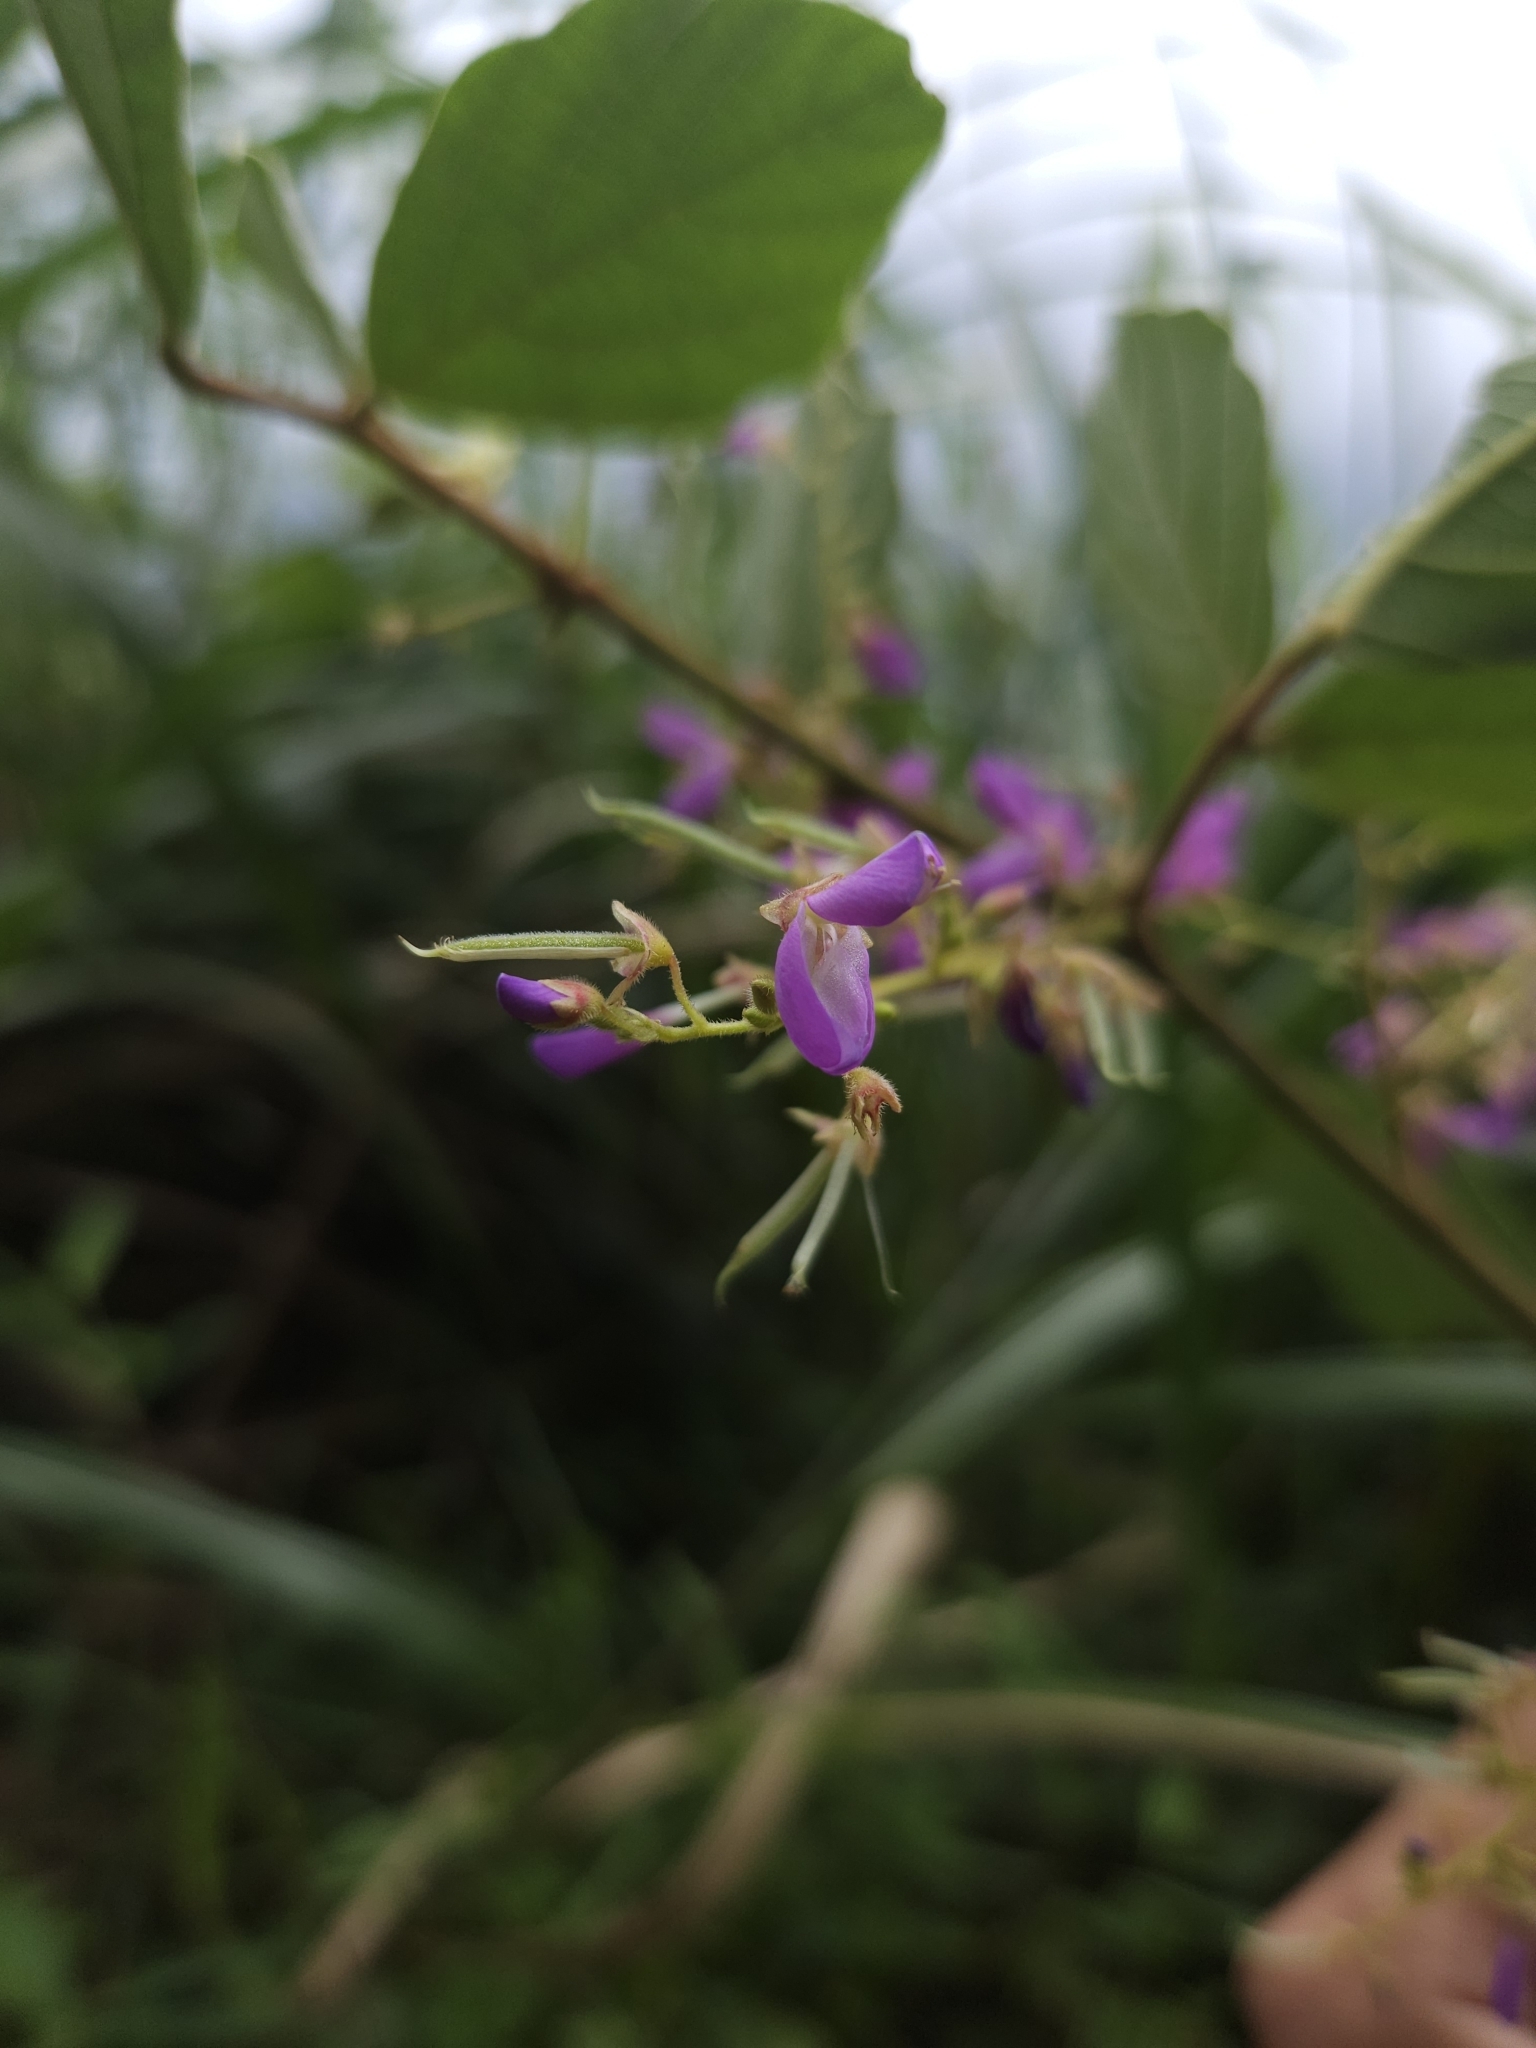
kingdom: Plantae
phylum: Tracheophyta
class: Magnoliopsida
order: Fabales
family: Fabaceae
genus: Puhuaea
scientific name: Puhuaea sequax
